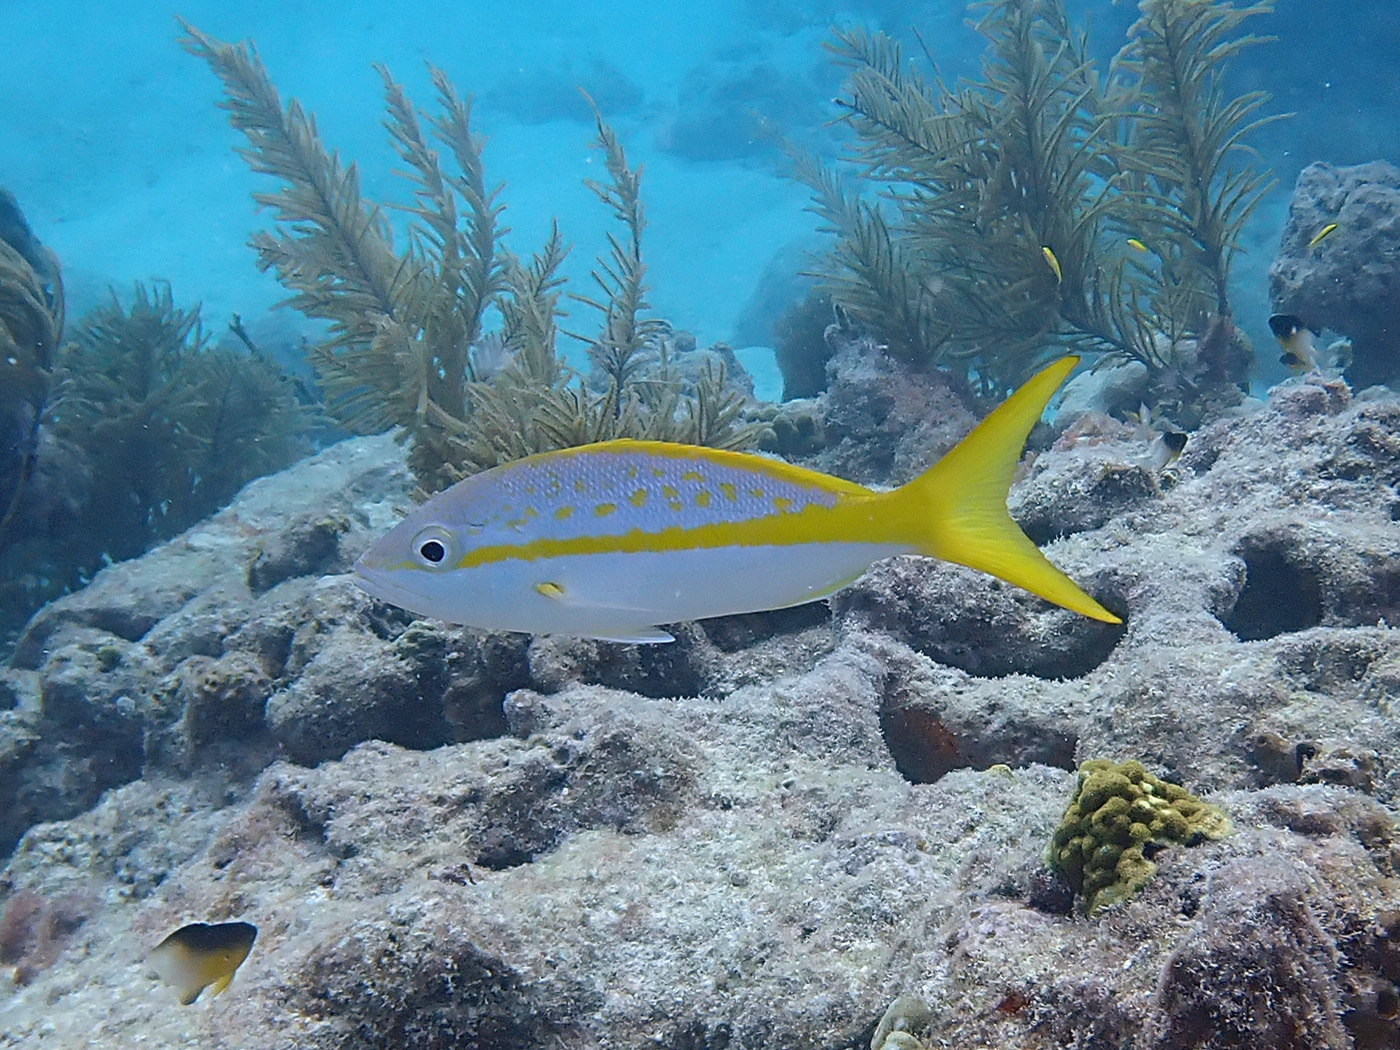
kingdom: Animalia
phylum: Chordata
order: Perciformes
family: Lutjanidae
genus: Ocyurus
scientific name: Ocyurus chrysurus
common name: Yellowtail snapper
